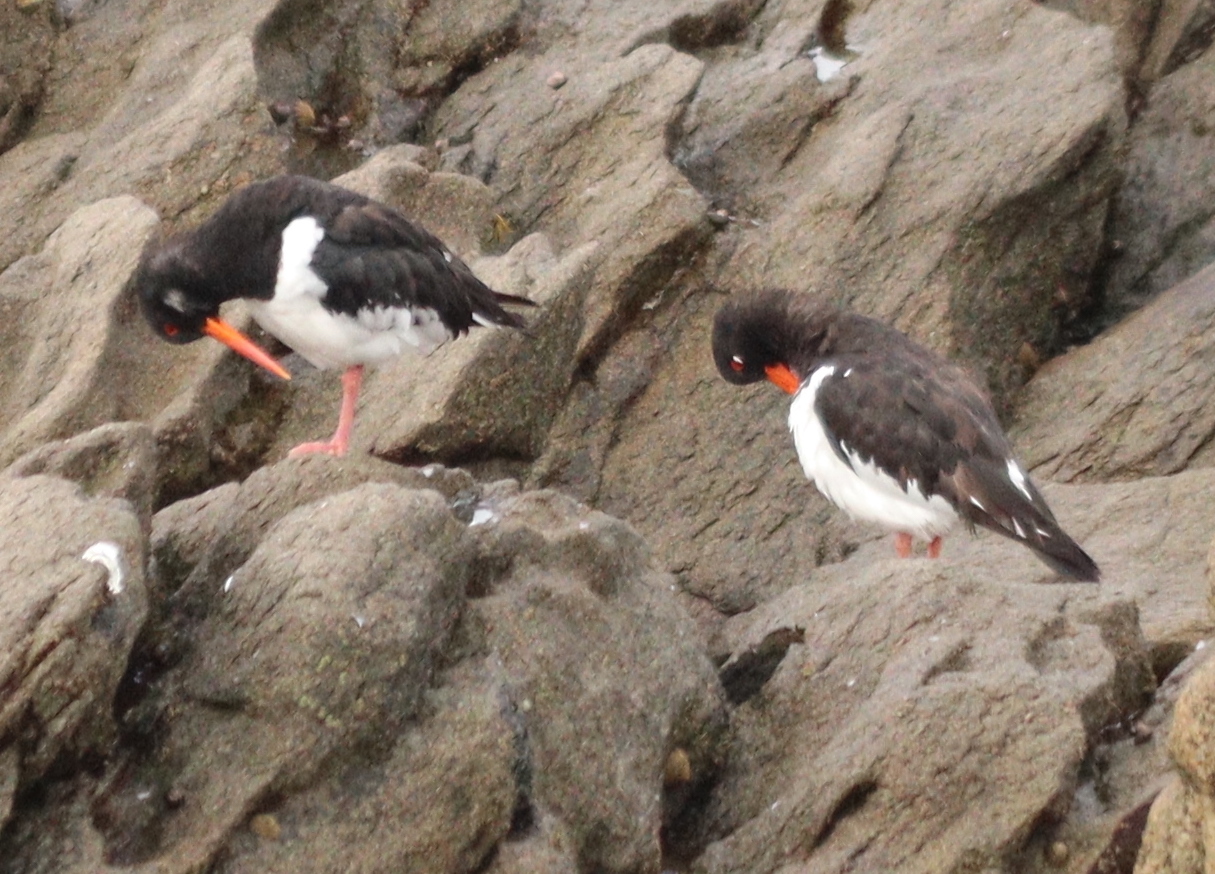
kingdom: Animalia
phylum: Chordata
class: Aves
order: Charadriiformes
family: Haematopodidae
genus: Haematopus
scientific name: Haematopus ostralegus
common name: Eurasian oystercatcher
